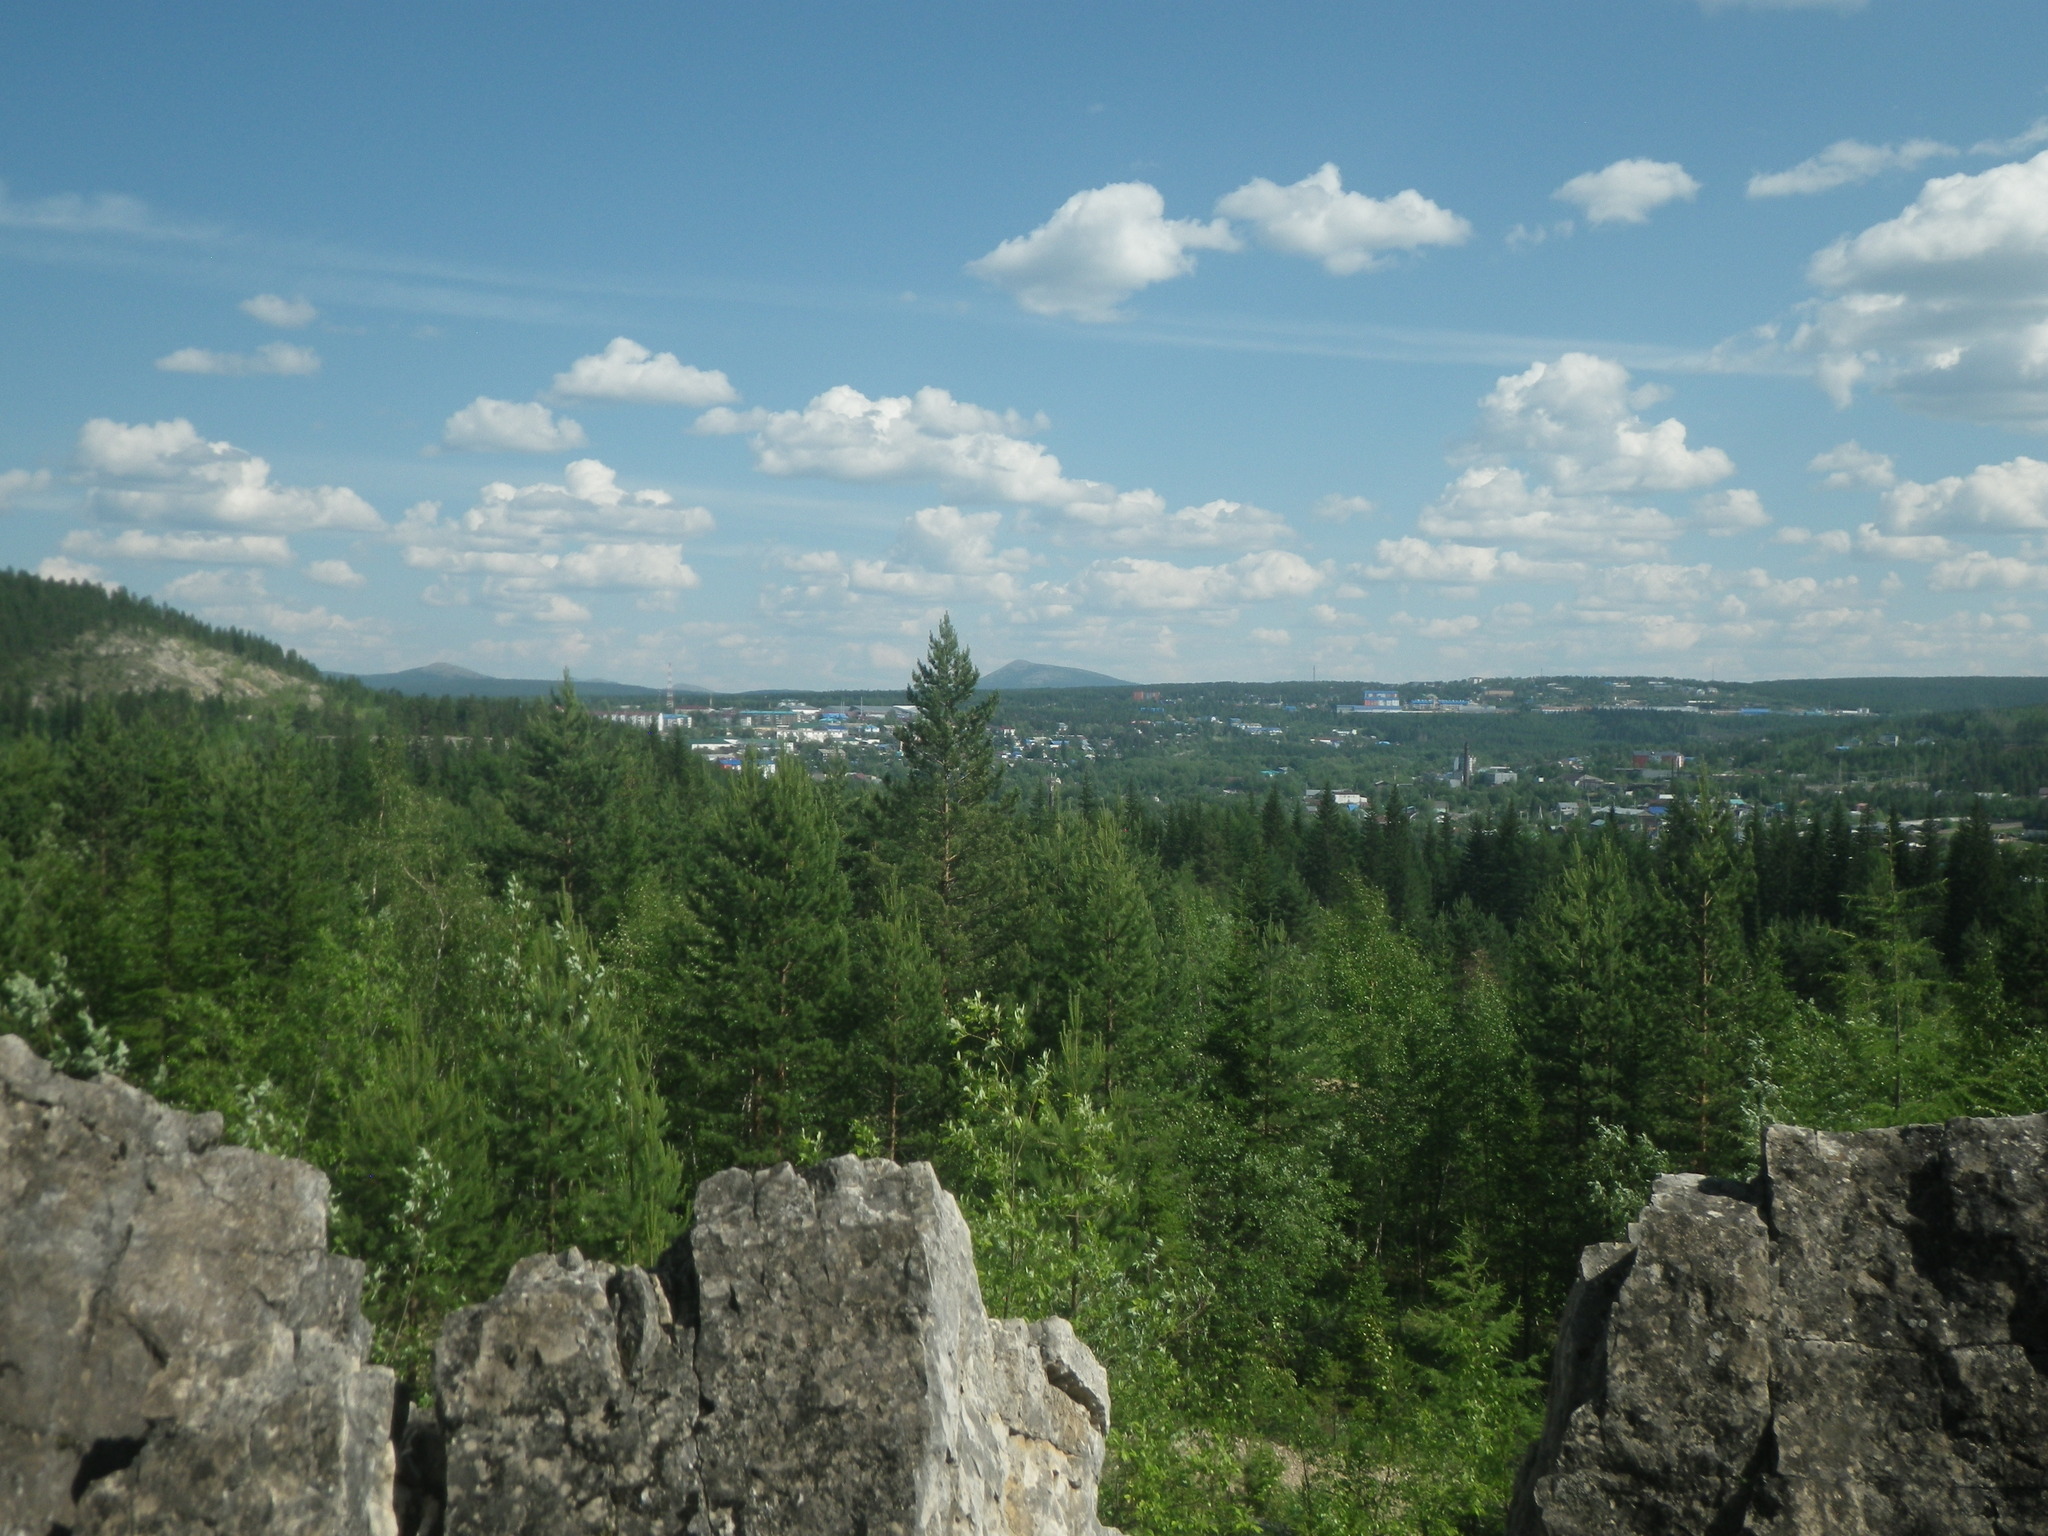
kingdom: Plantae
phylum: Tracheophyta
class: Pinopsida
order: Pinales
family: Pinaceae
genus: Picea
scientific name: Picea obovata
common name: Siberian spruce
